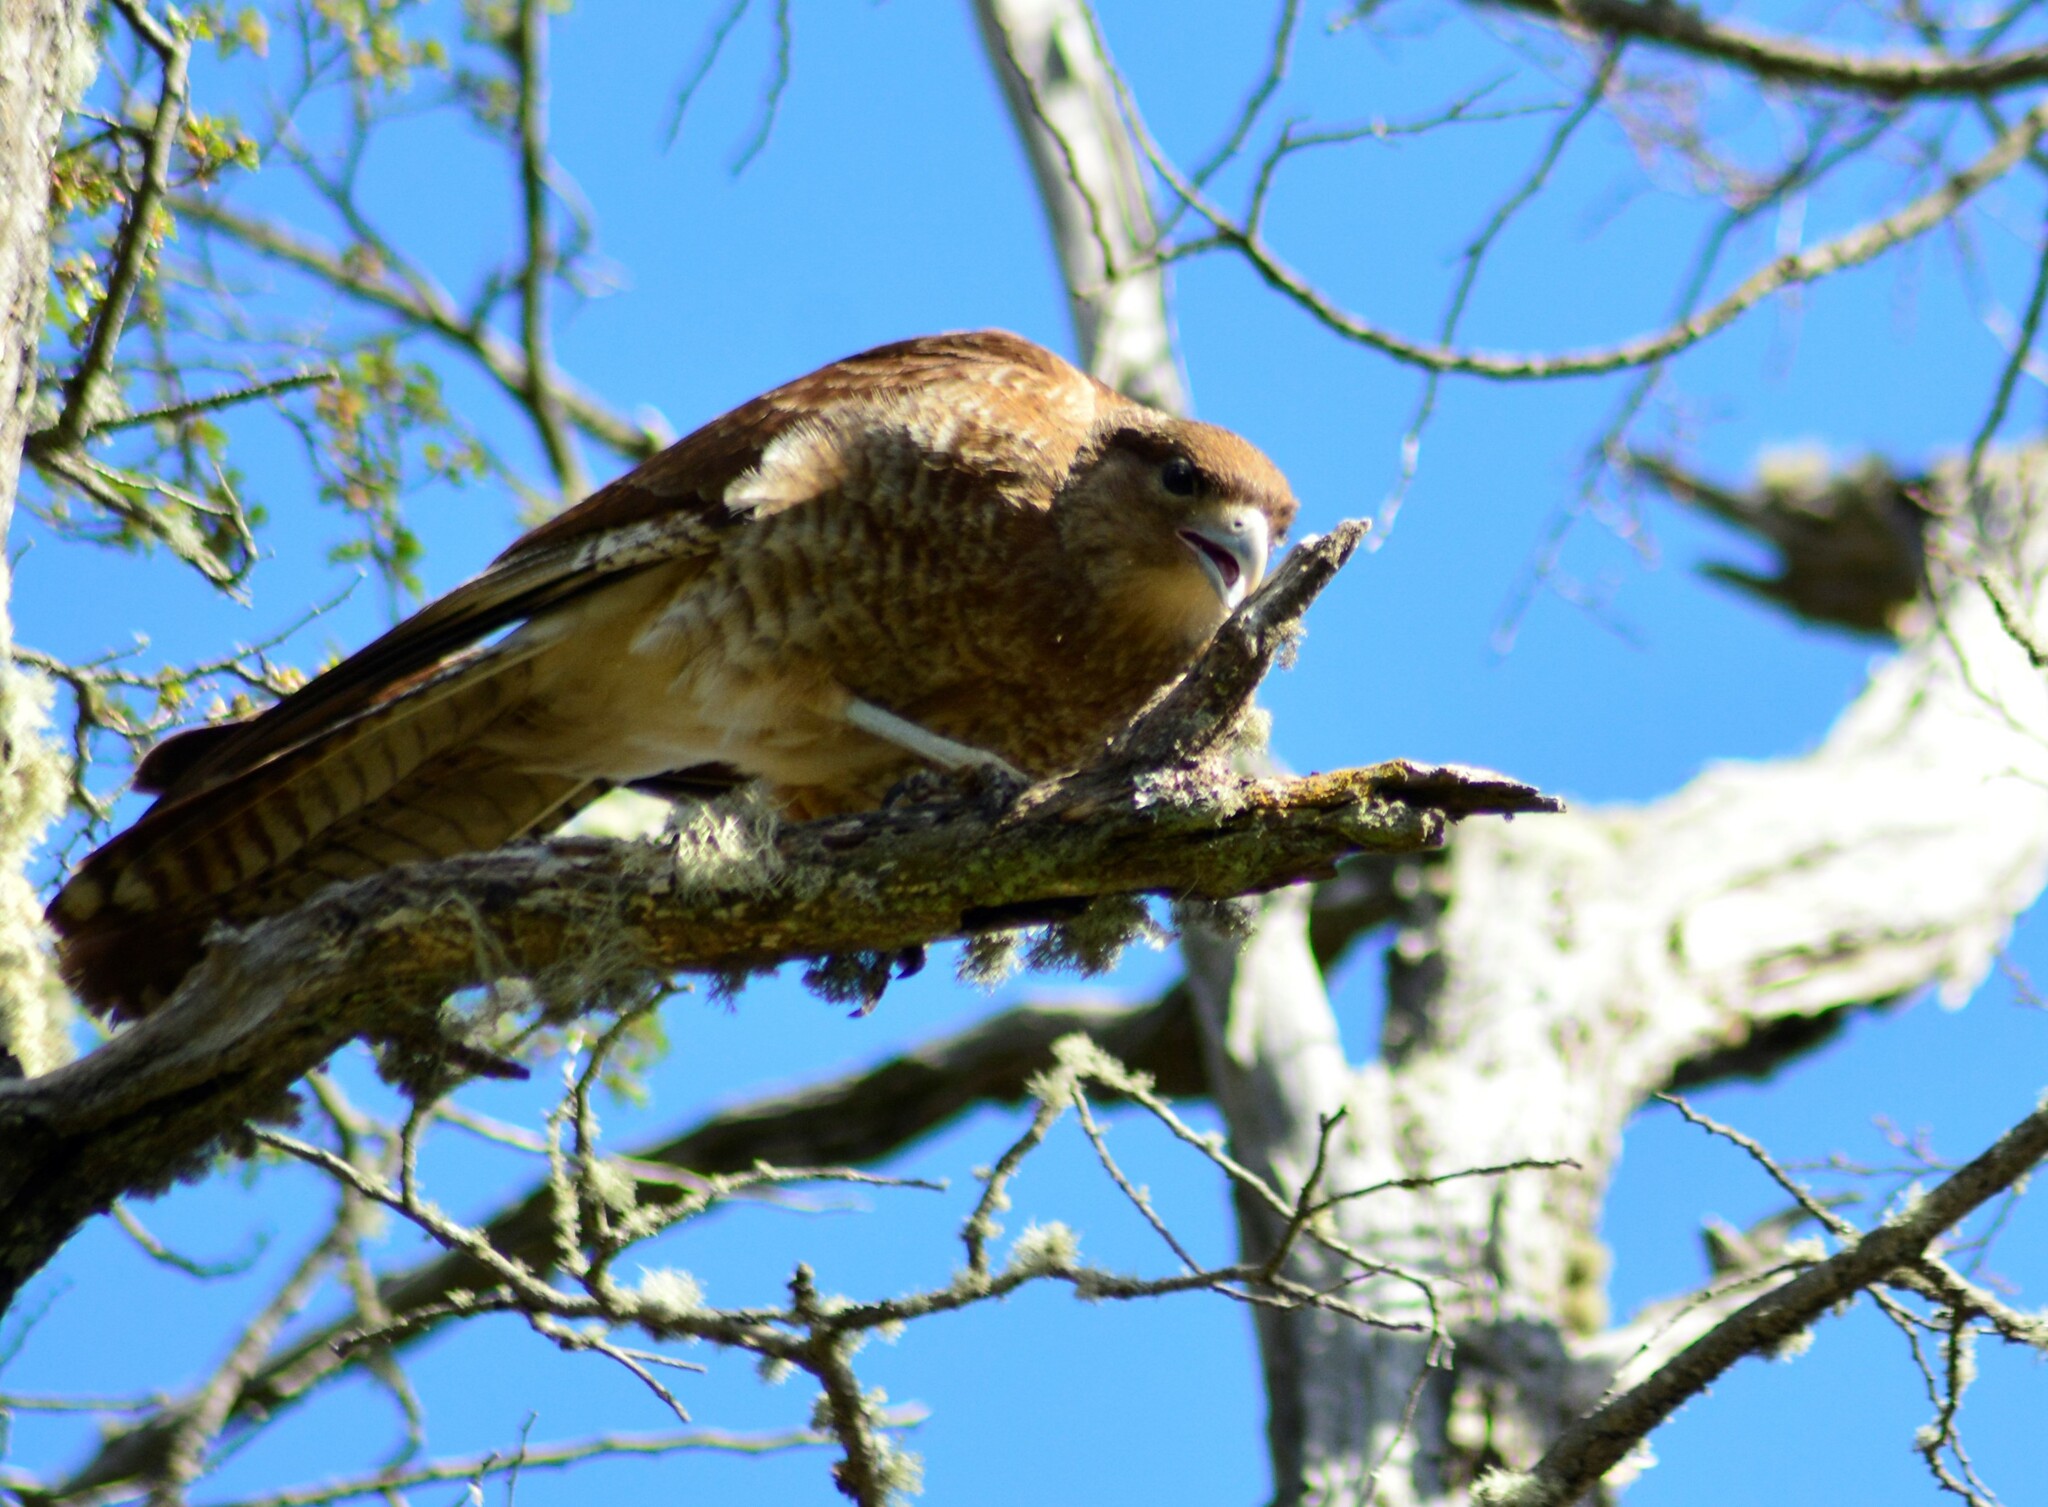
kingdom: Animalia
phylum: Chordata
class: Aves
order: Falconiformes
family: Falconidae
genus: Daptrius
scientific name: Daptrius
